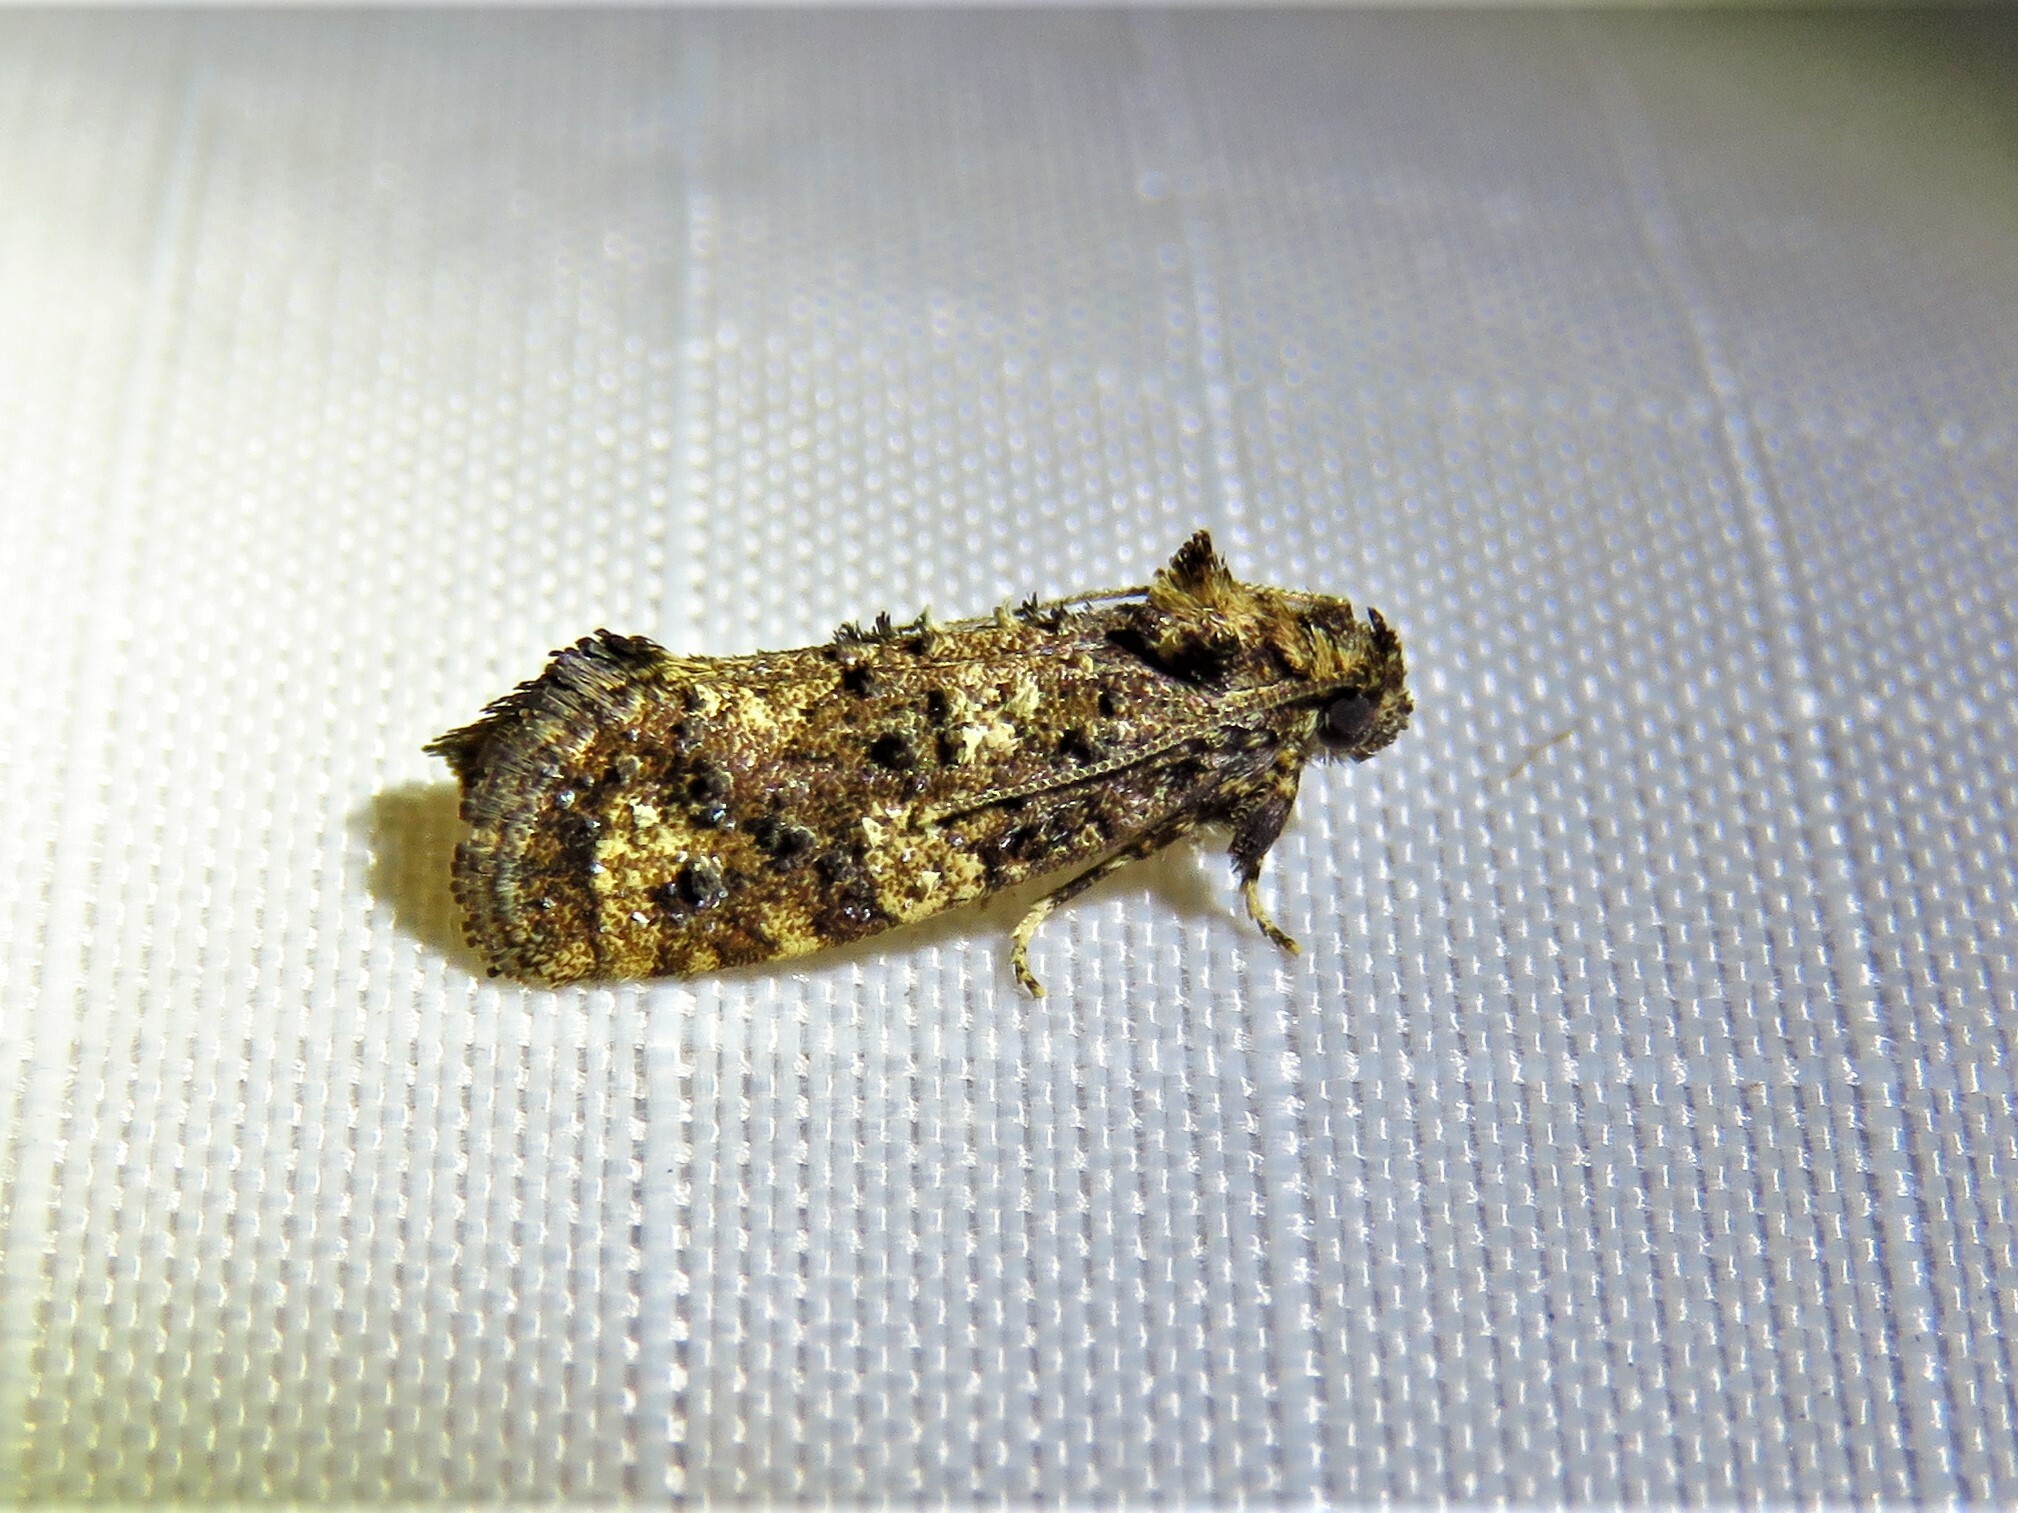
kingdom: Animalia
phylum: Arthropoda
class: Insecta
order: Lepidoptera
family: Tineidae
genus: Acrolophus
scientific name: Acrolophus cressoni
